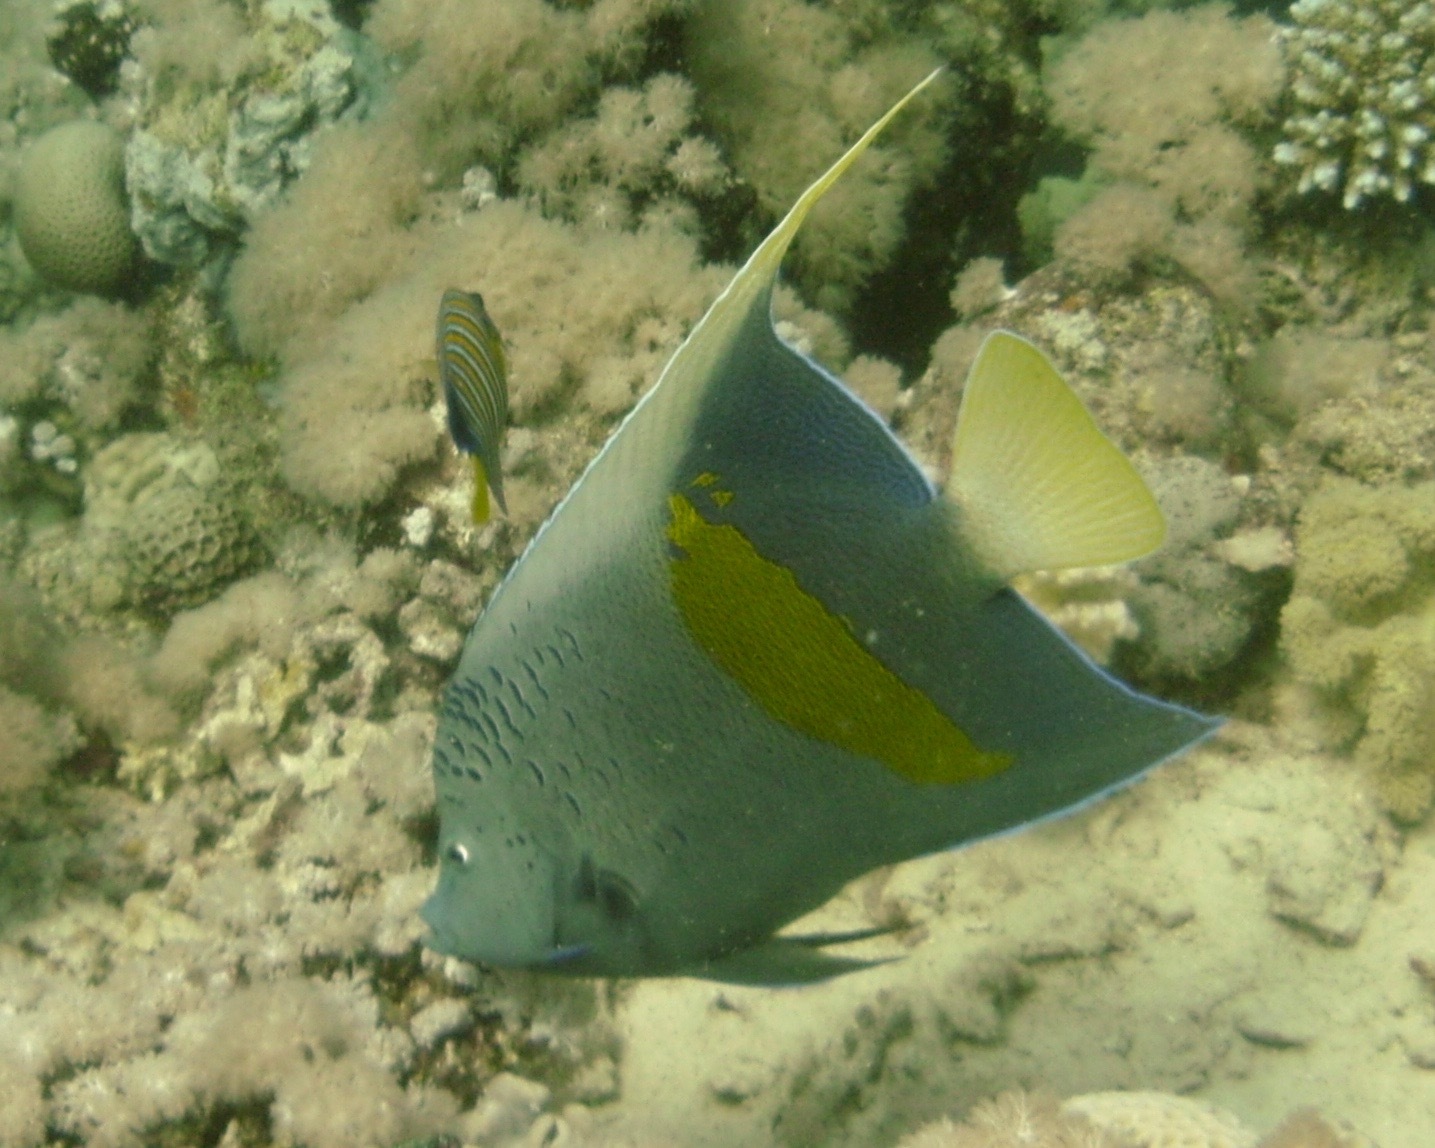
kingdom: Animalia
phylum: Chordata
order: Perciformes
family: Pomacanthidae
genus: Pomacanthus
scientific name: Pomacanthus maculosus
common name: Yellowbar angelfish
